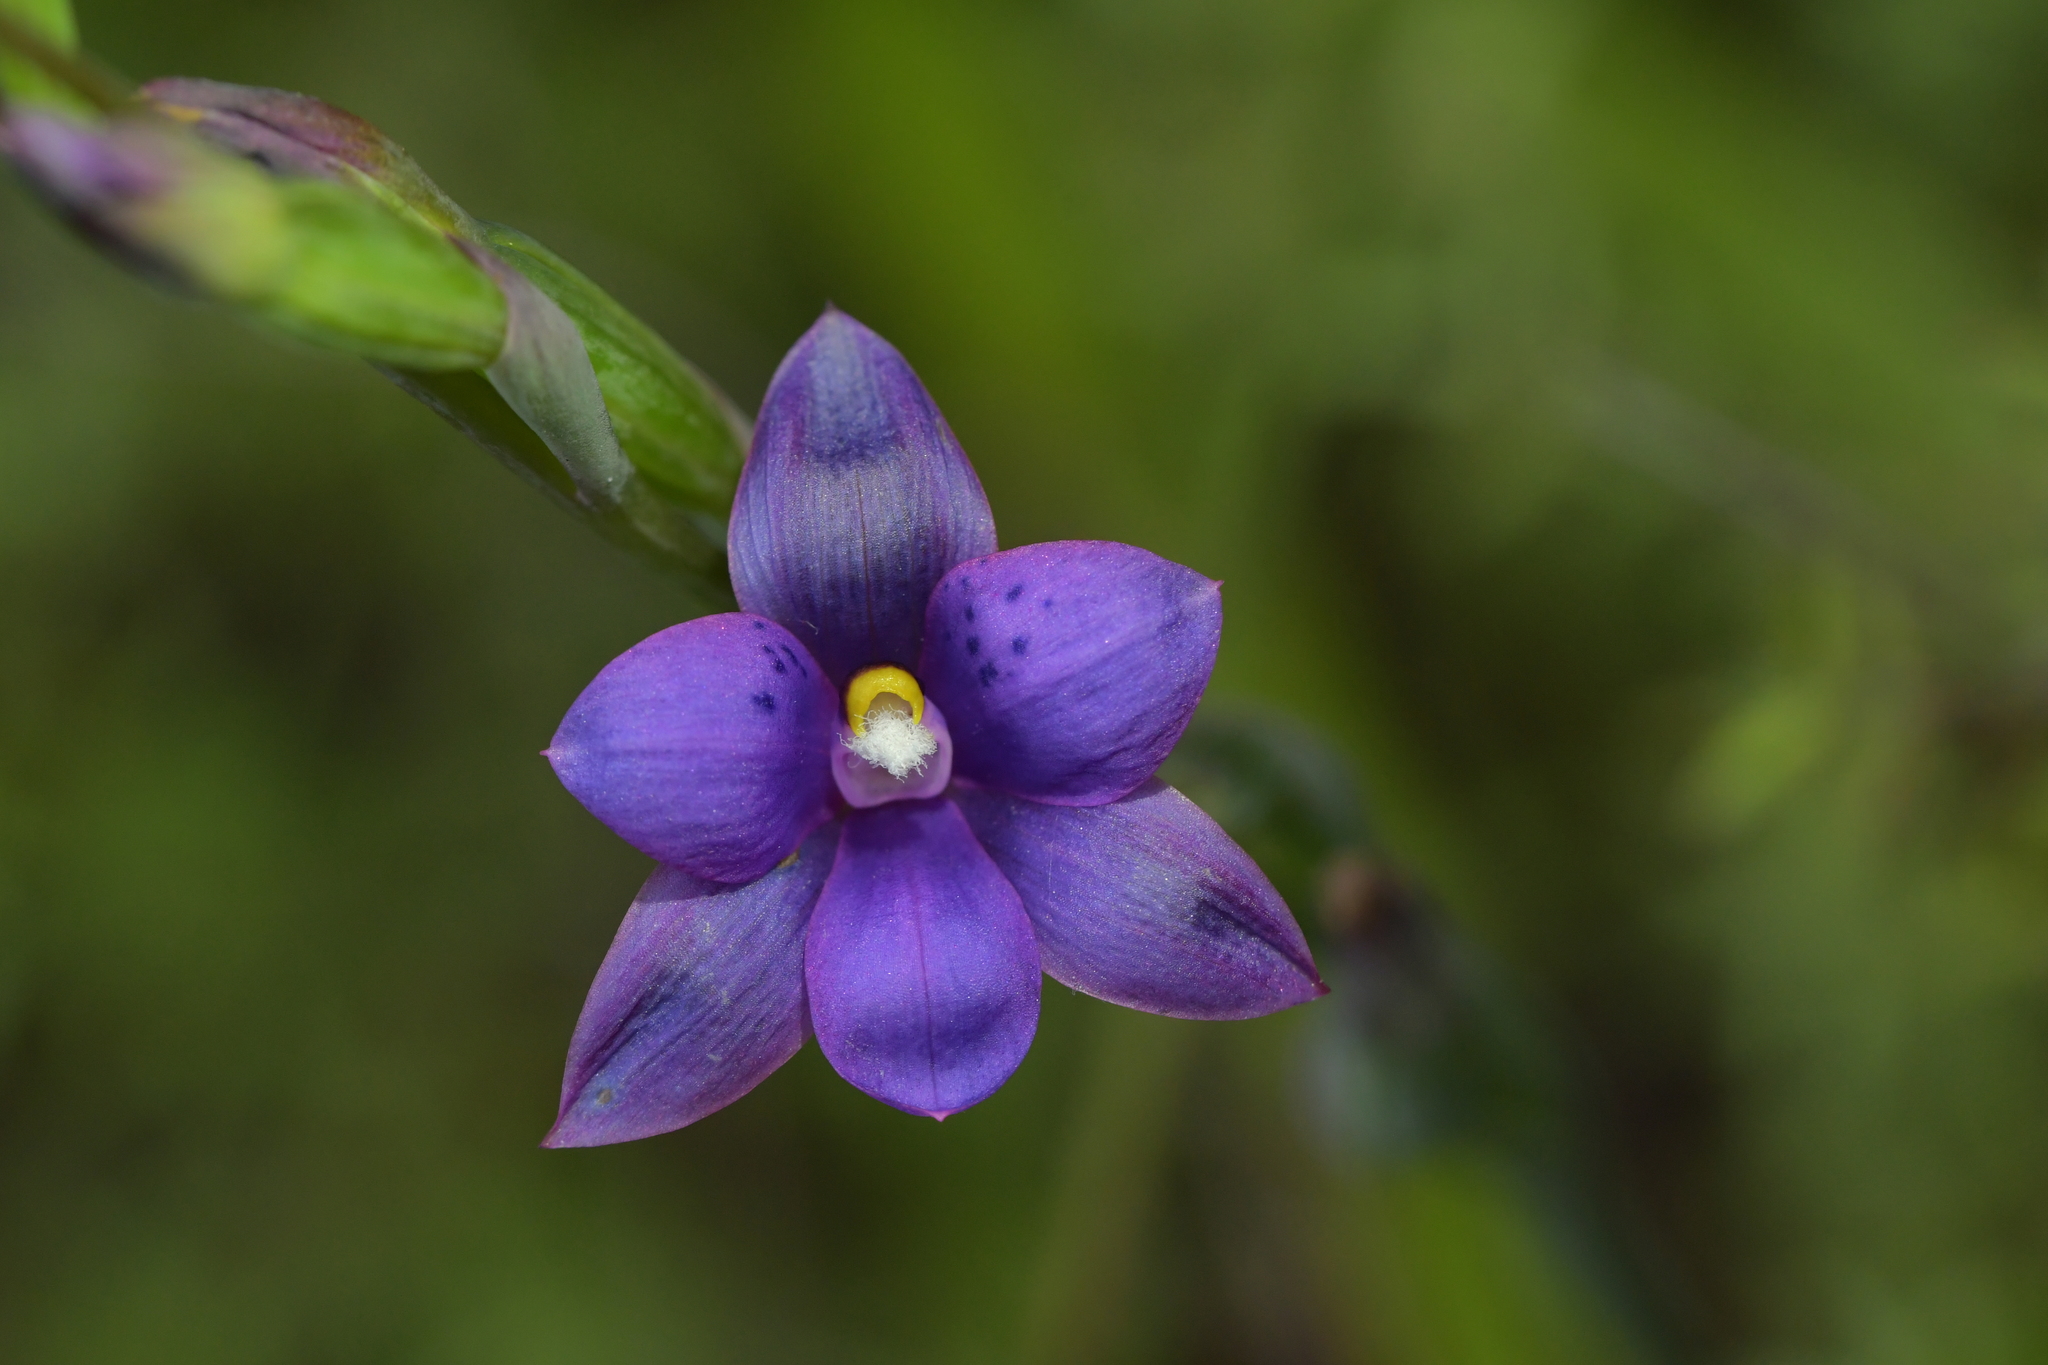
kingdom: Plantae
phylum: Tracheophyta
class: Liliopsida
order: Asparagales
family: Orchidaceae
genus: Thelymitra
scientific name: Thelymitra nervosa
